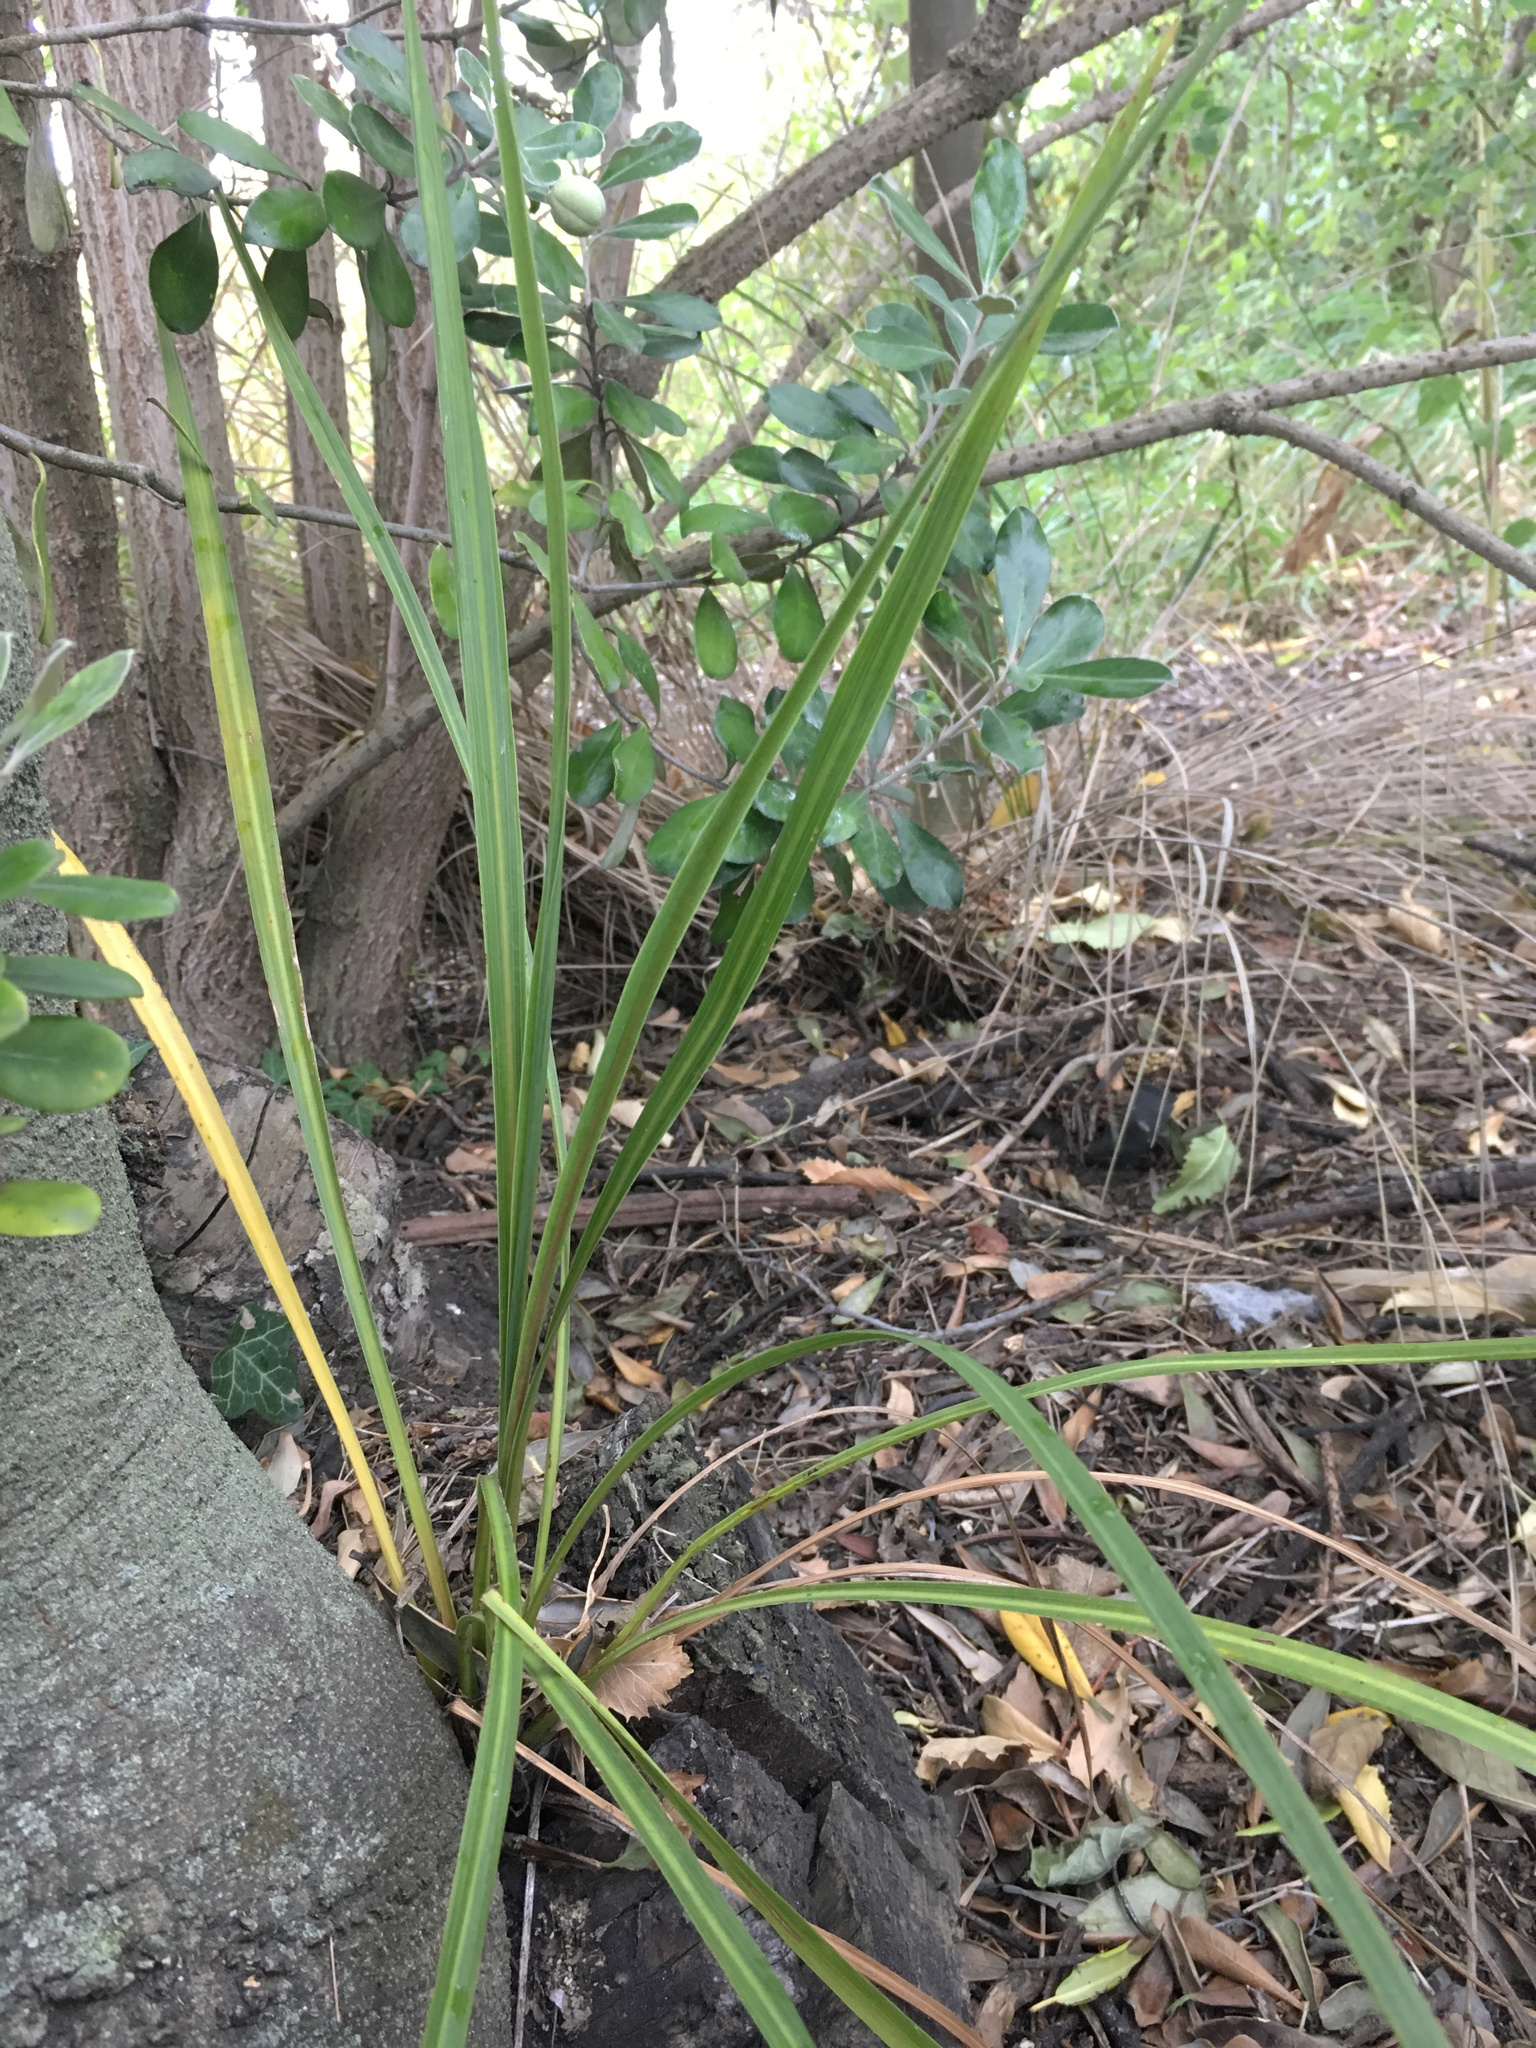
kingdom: Plantae
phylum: Tracheophyta
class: Liliopsida
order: Asparagales
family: Asparagaceae
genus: Cordyline
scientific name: Cordyline australis
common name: Cabbage-palm
